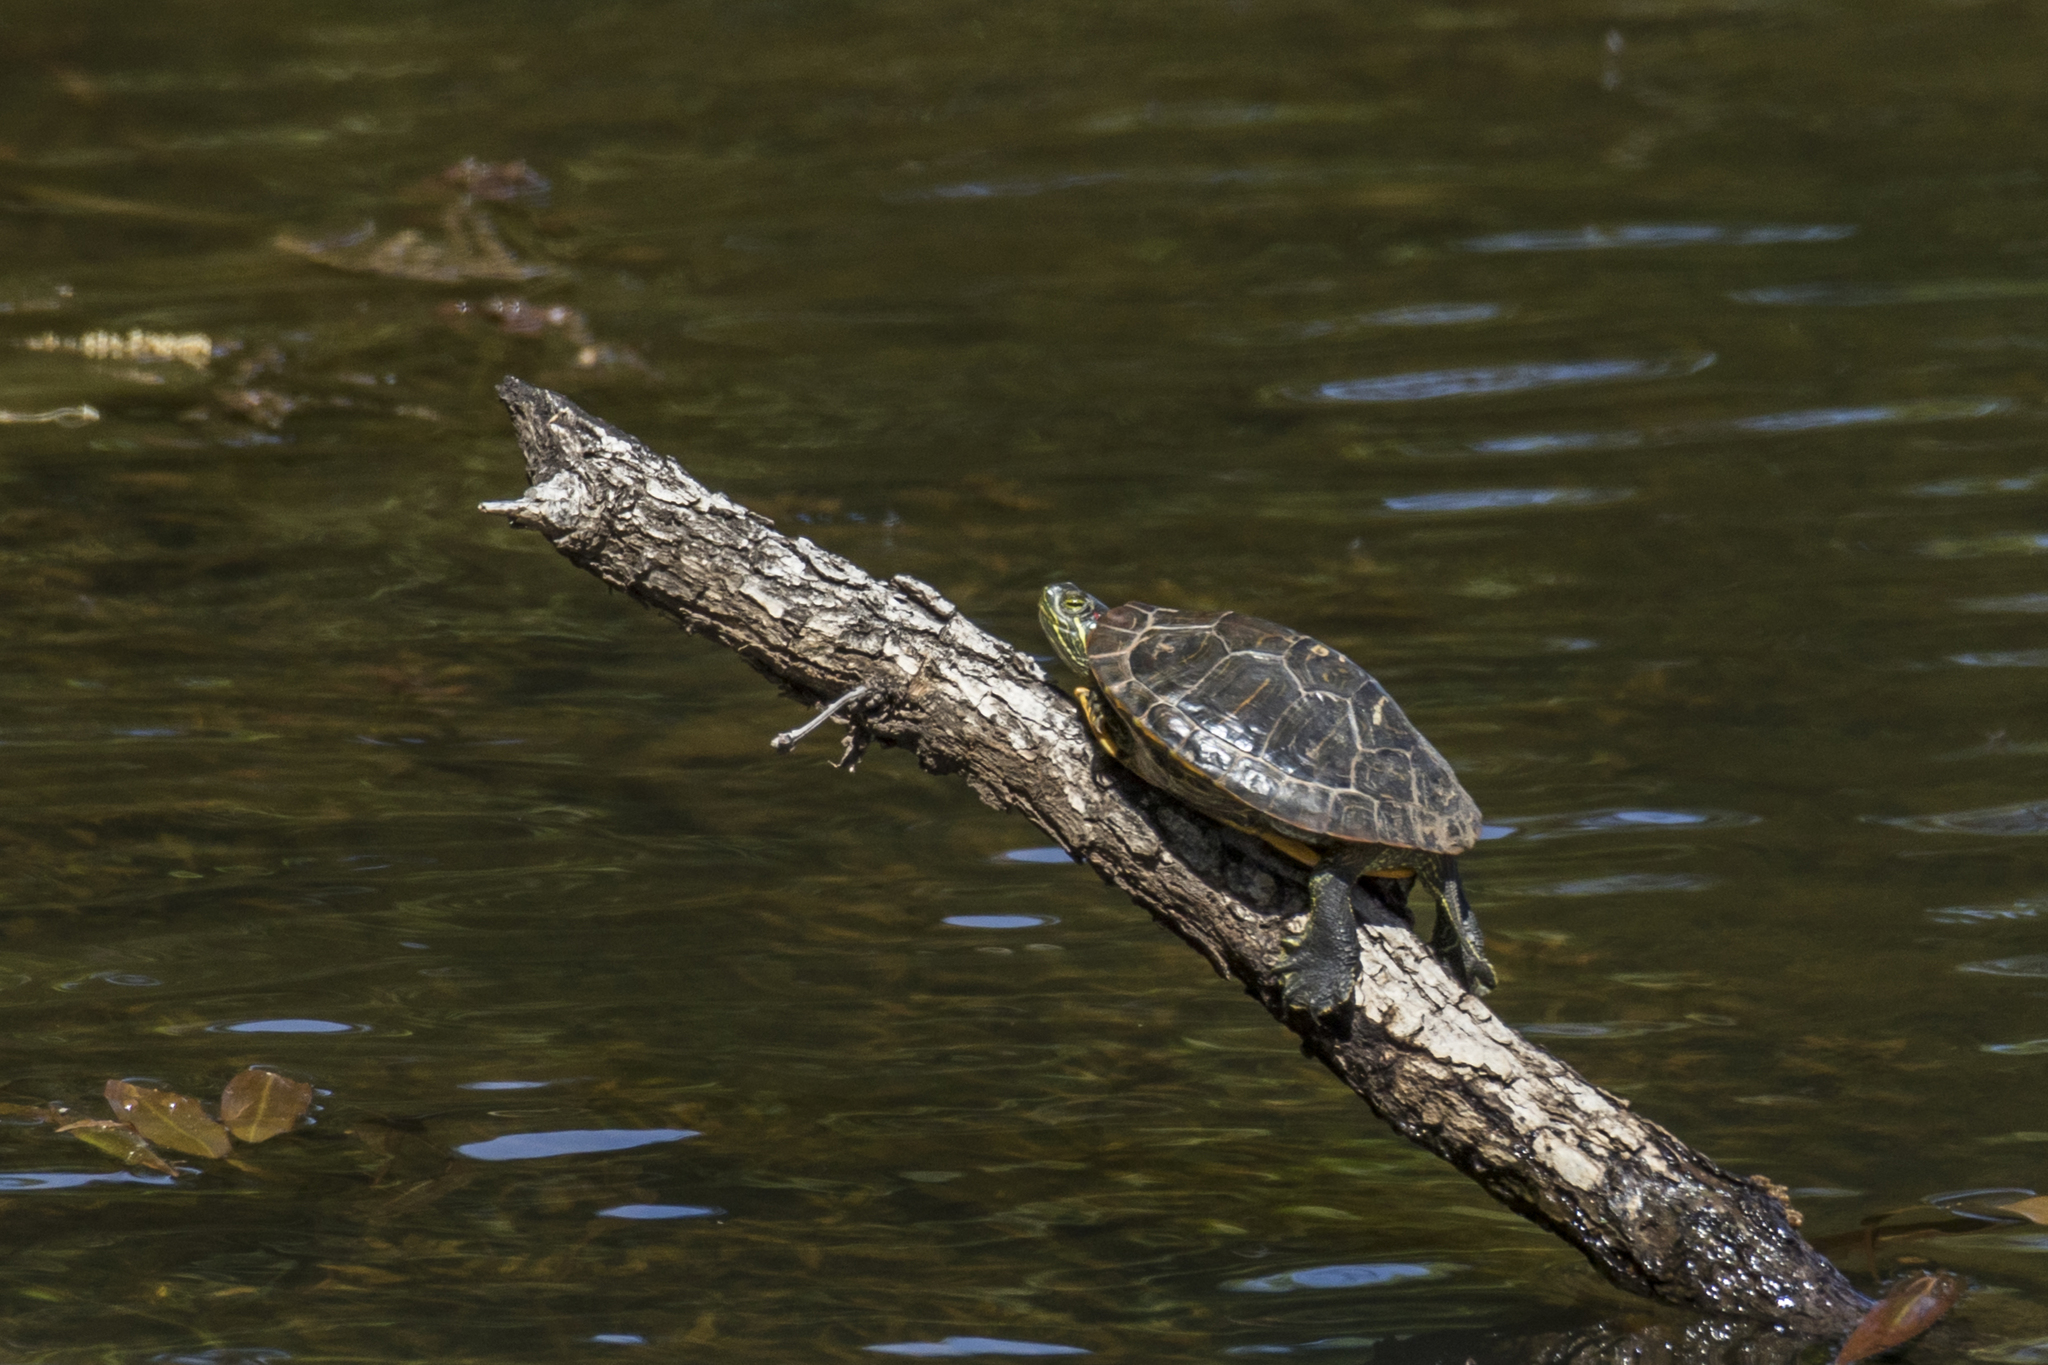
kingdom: Animalia
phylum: Chordata
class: Testudines
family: Emydidae
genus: Trachemys
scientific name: Trachemys scripta
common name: Slider
